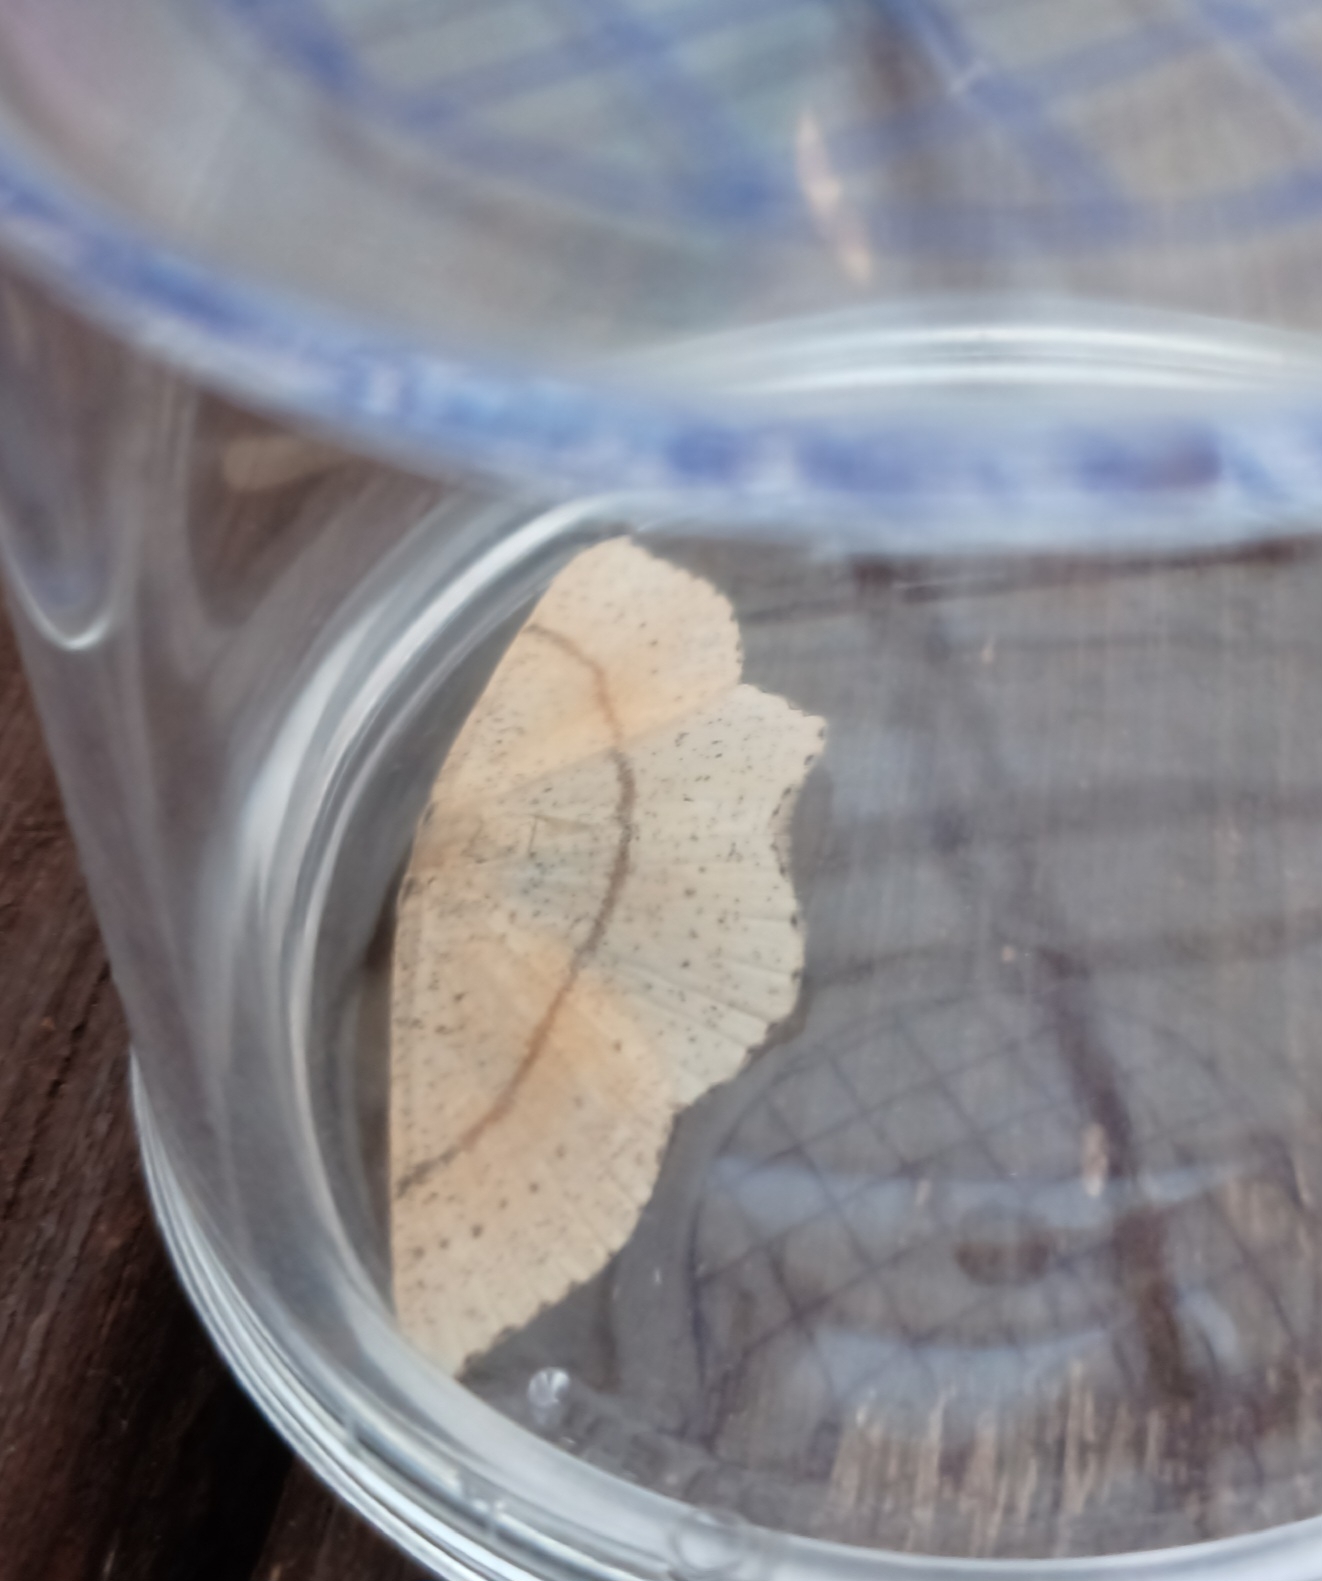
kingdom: Animalia
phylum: Arthropoda
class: Insecta
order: Lepidoptera
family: Geometridae
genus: Cyclophora
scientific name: Cyclophora punctaria
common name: Maiden's blush
